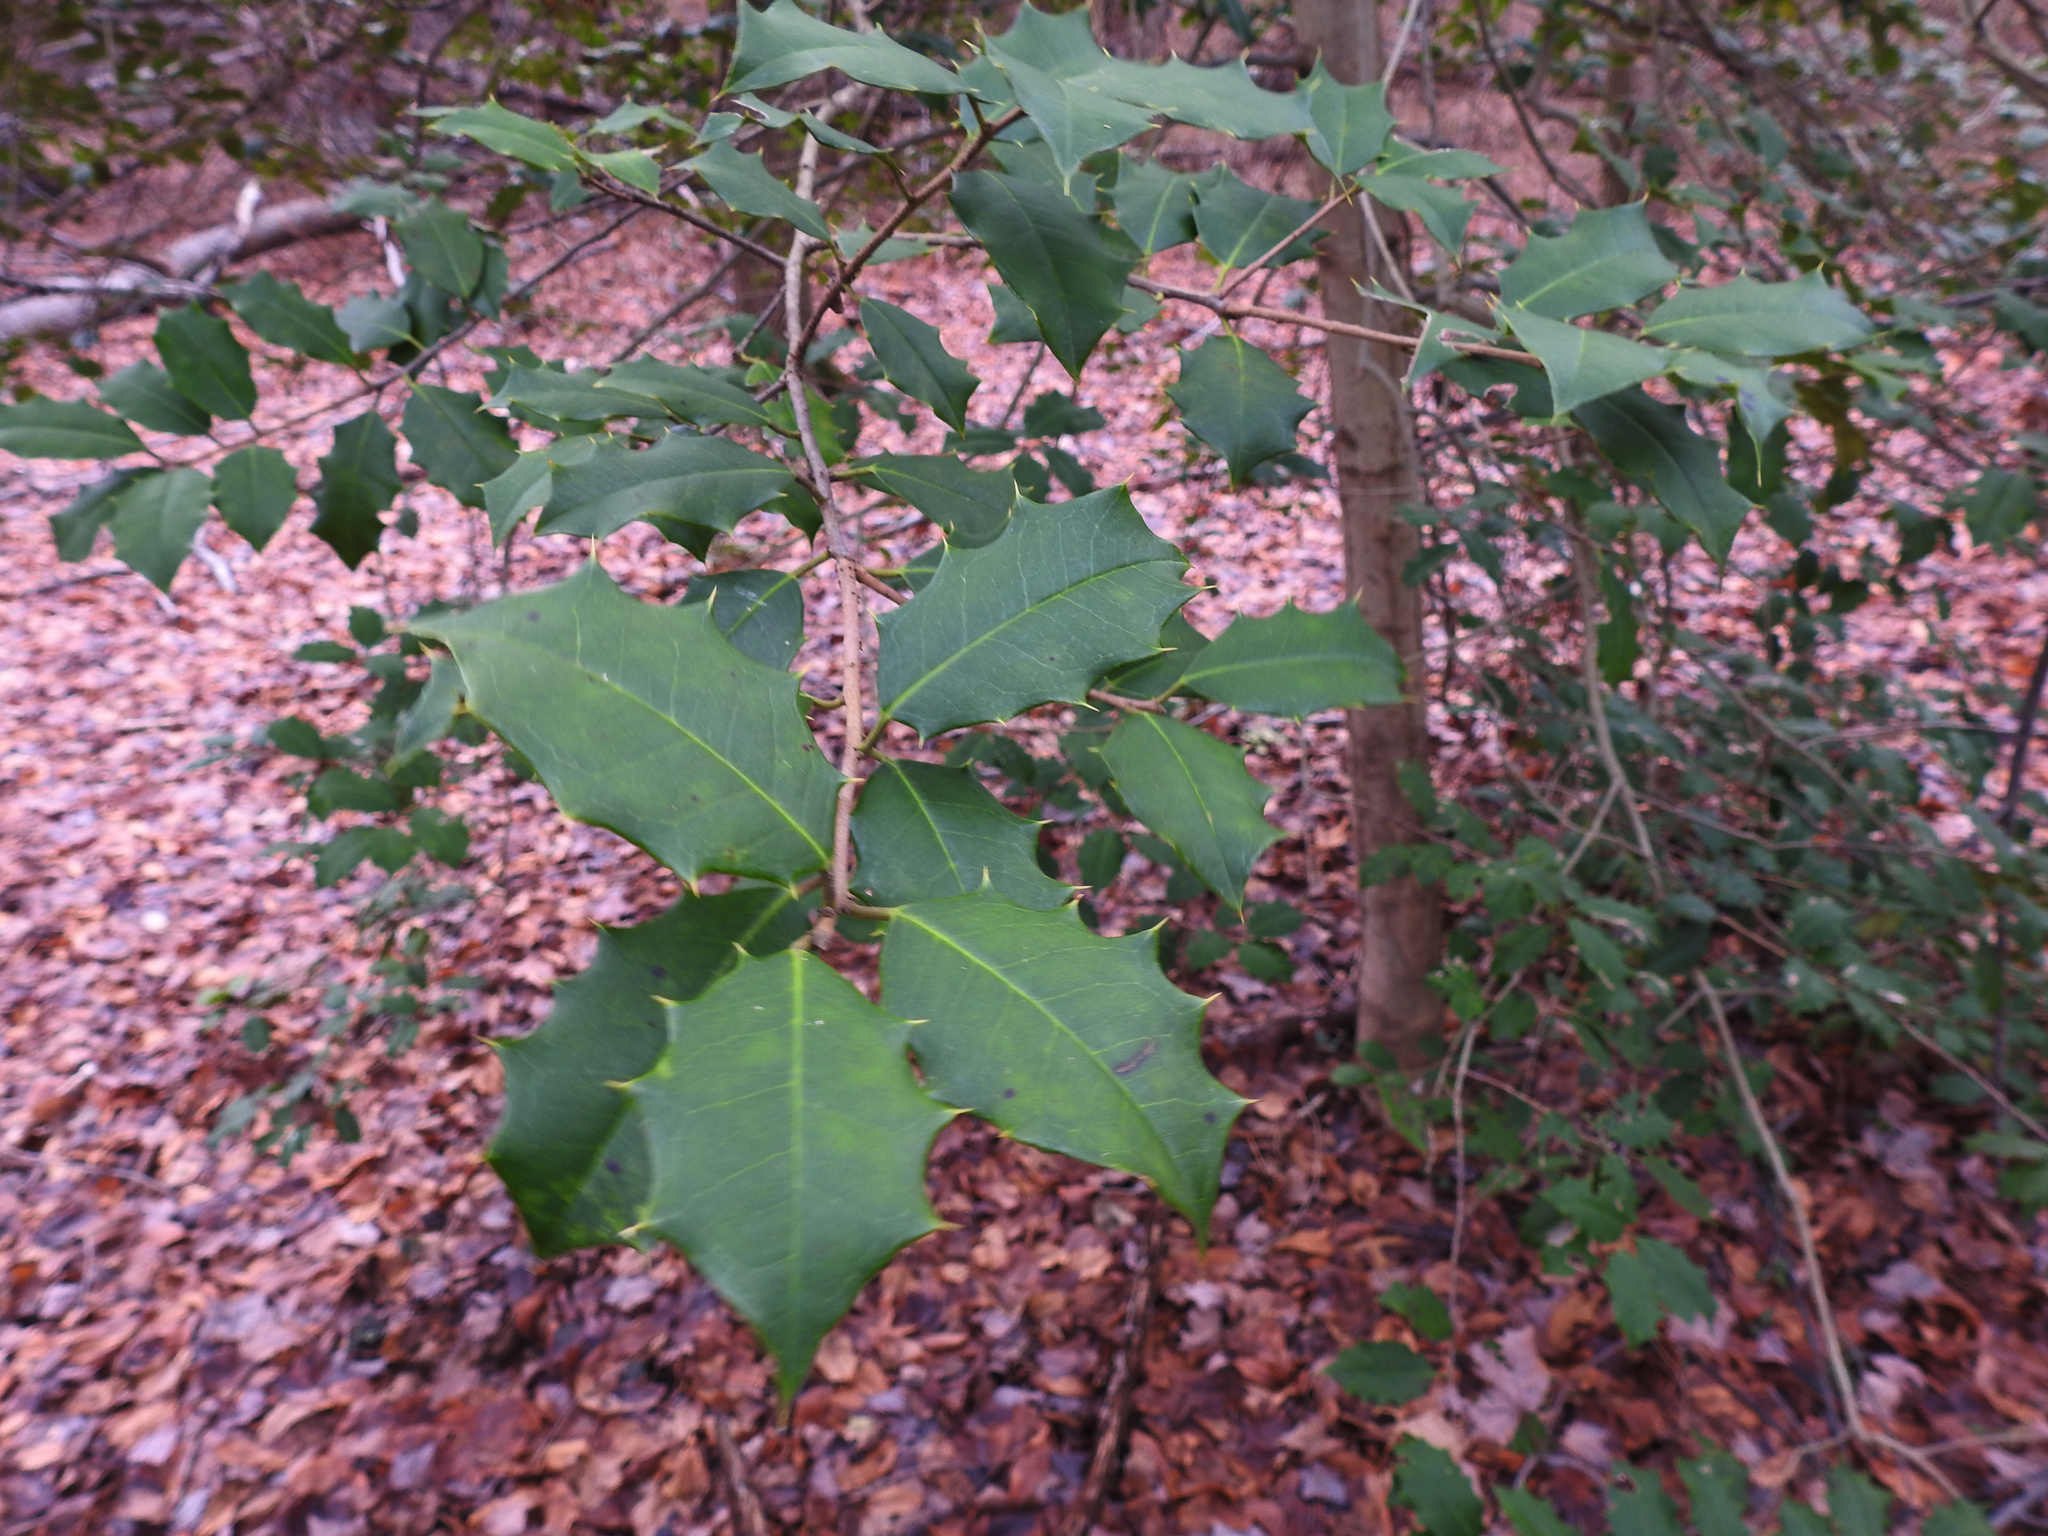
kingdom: Plantae
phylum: Tracheophyta
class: Magnoliopsida
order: Aquifoliales
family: Aquifoliaceae
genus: Ilex
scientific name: Ilex opaca
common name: American holly
